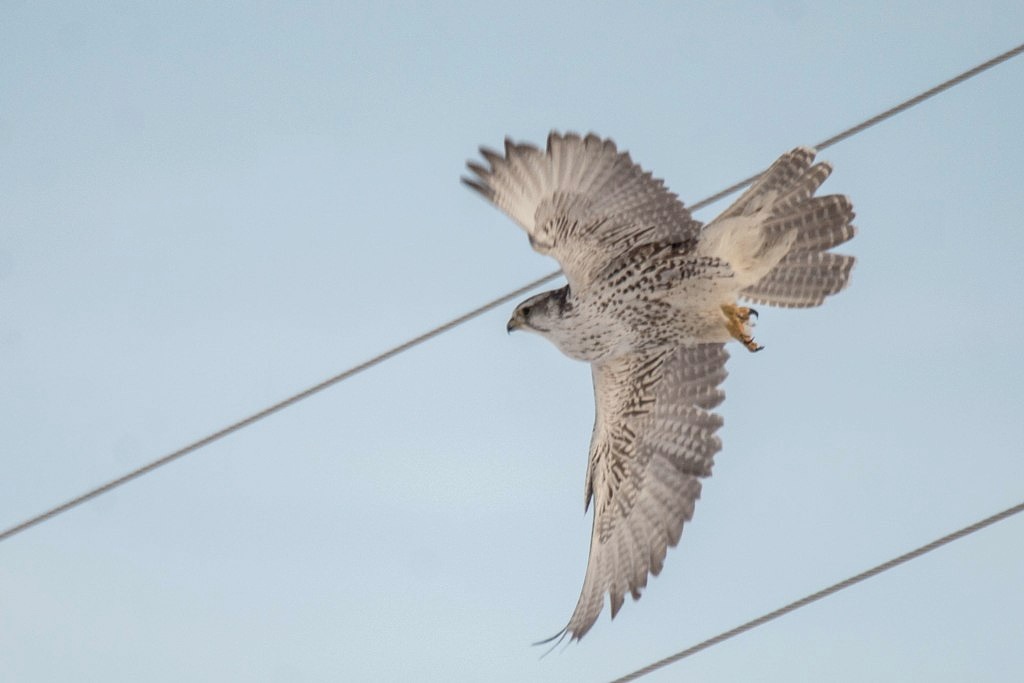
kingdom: Animalia
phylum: Chordata
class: Aves
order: Falconiformes
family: Falconidae
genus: Falco
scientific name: Falco cherrug
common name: Saker falcon
